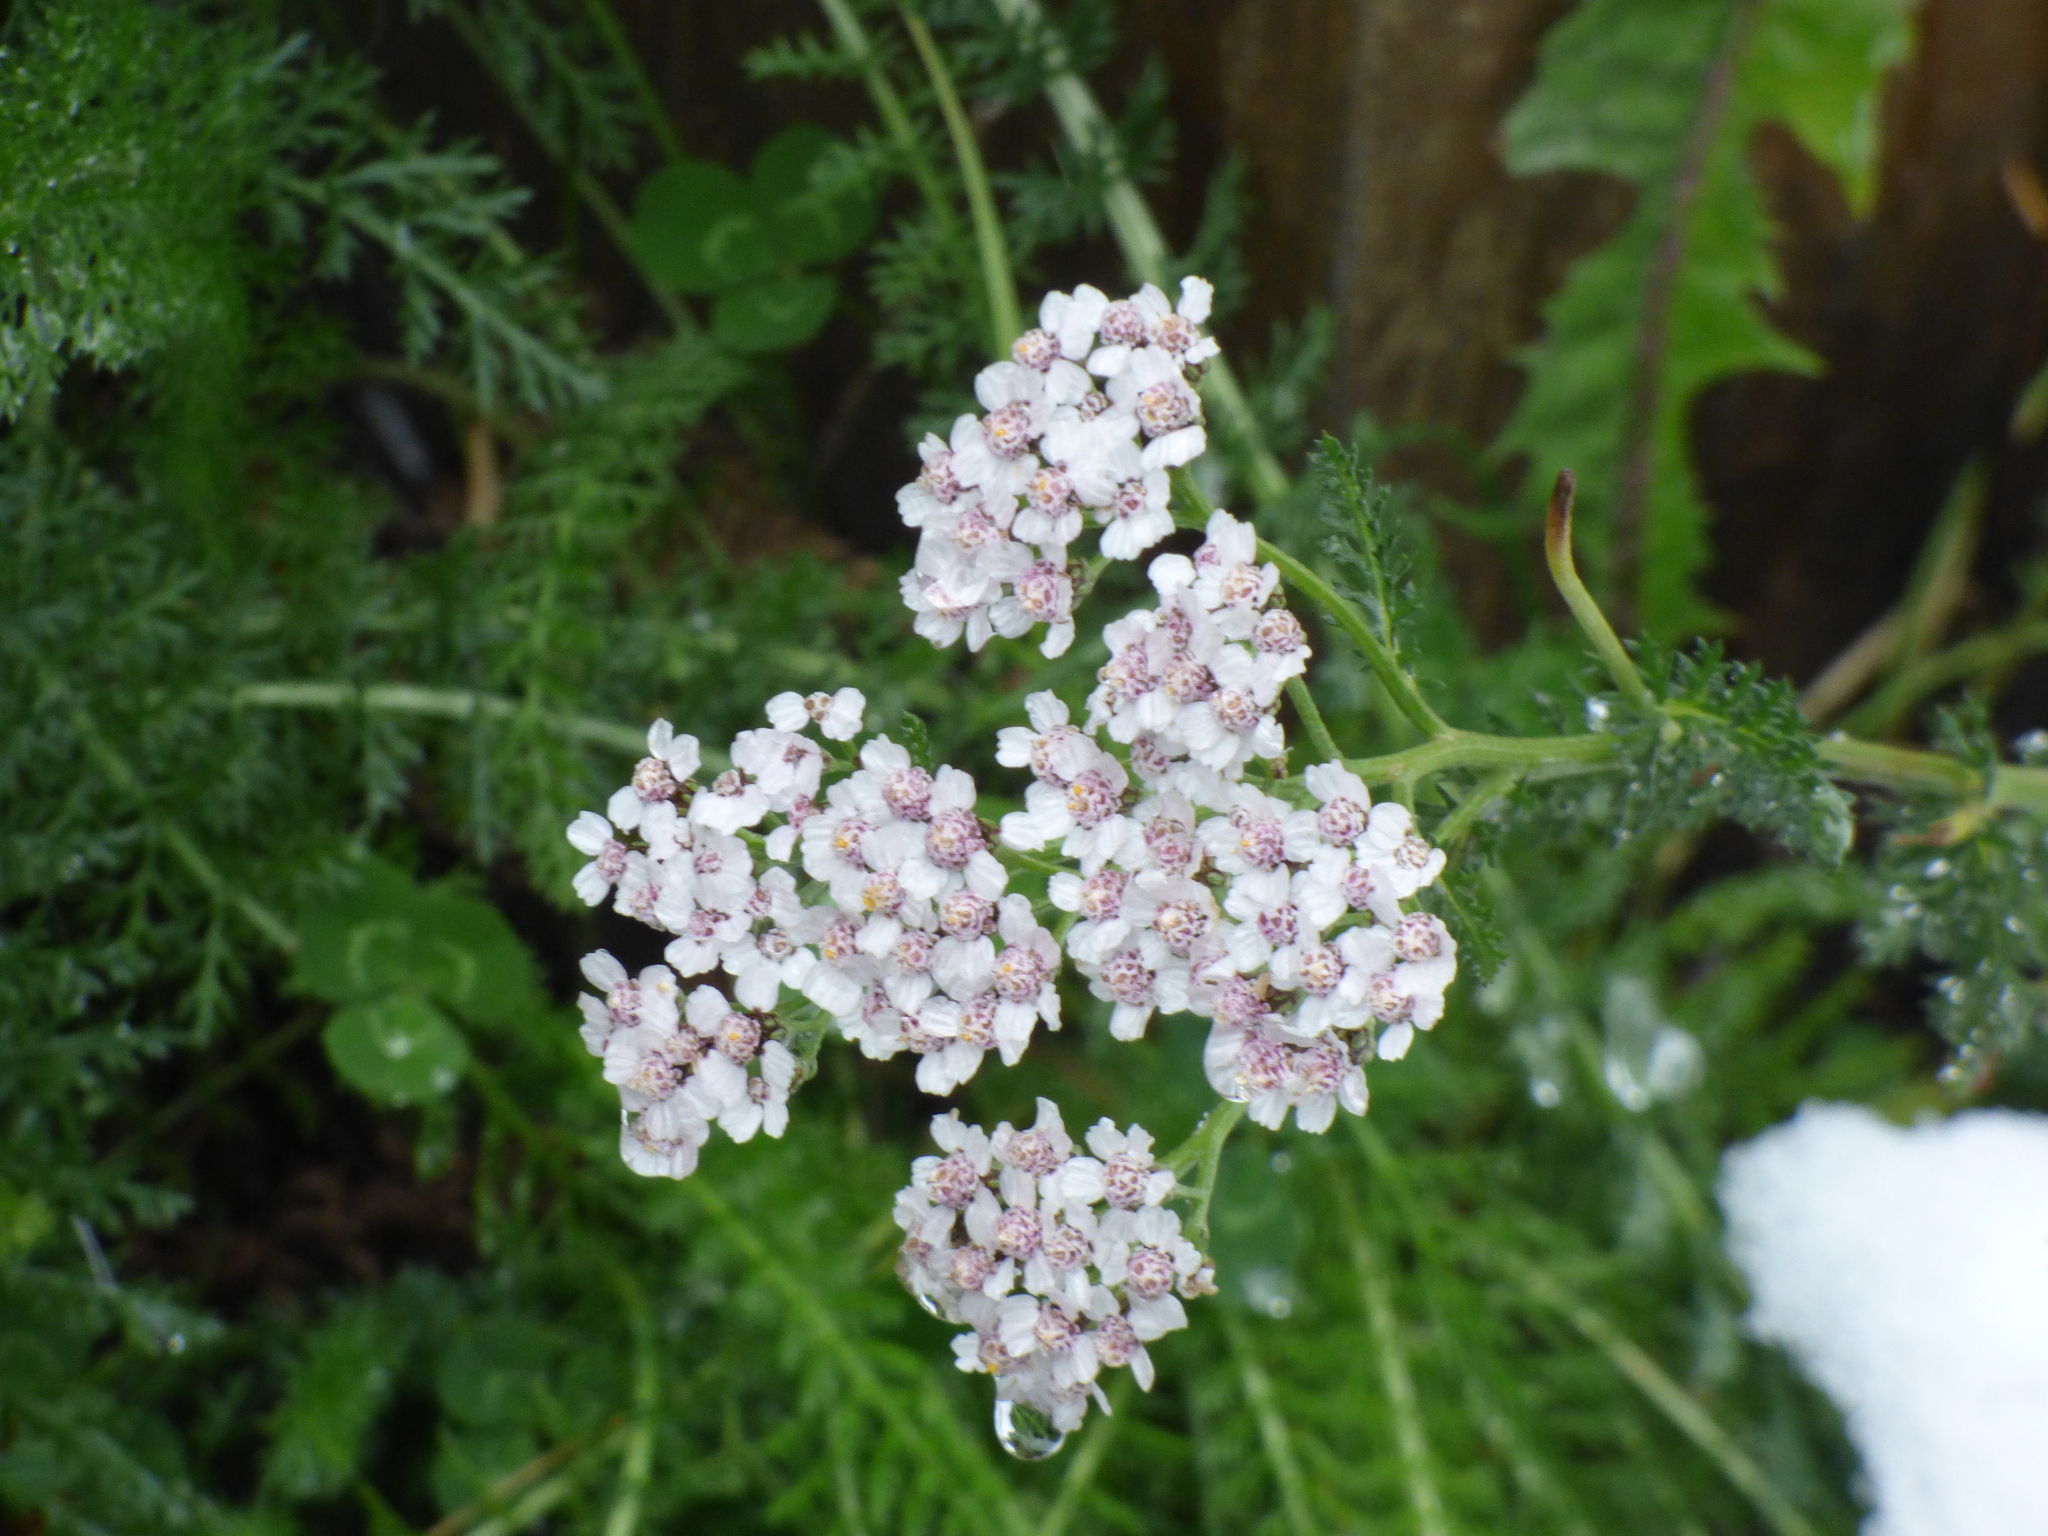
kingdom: Plantae
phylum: Tracheophyta
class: Magnoliopsida
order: Asterales
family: Asteraceae
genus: Achillea
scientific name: Achillea millefolium
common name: Yarrow
